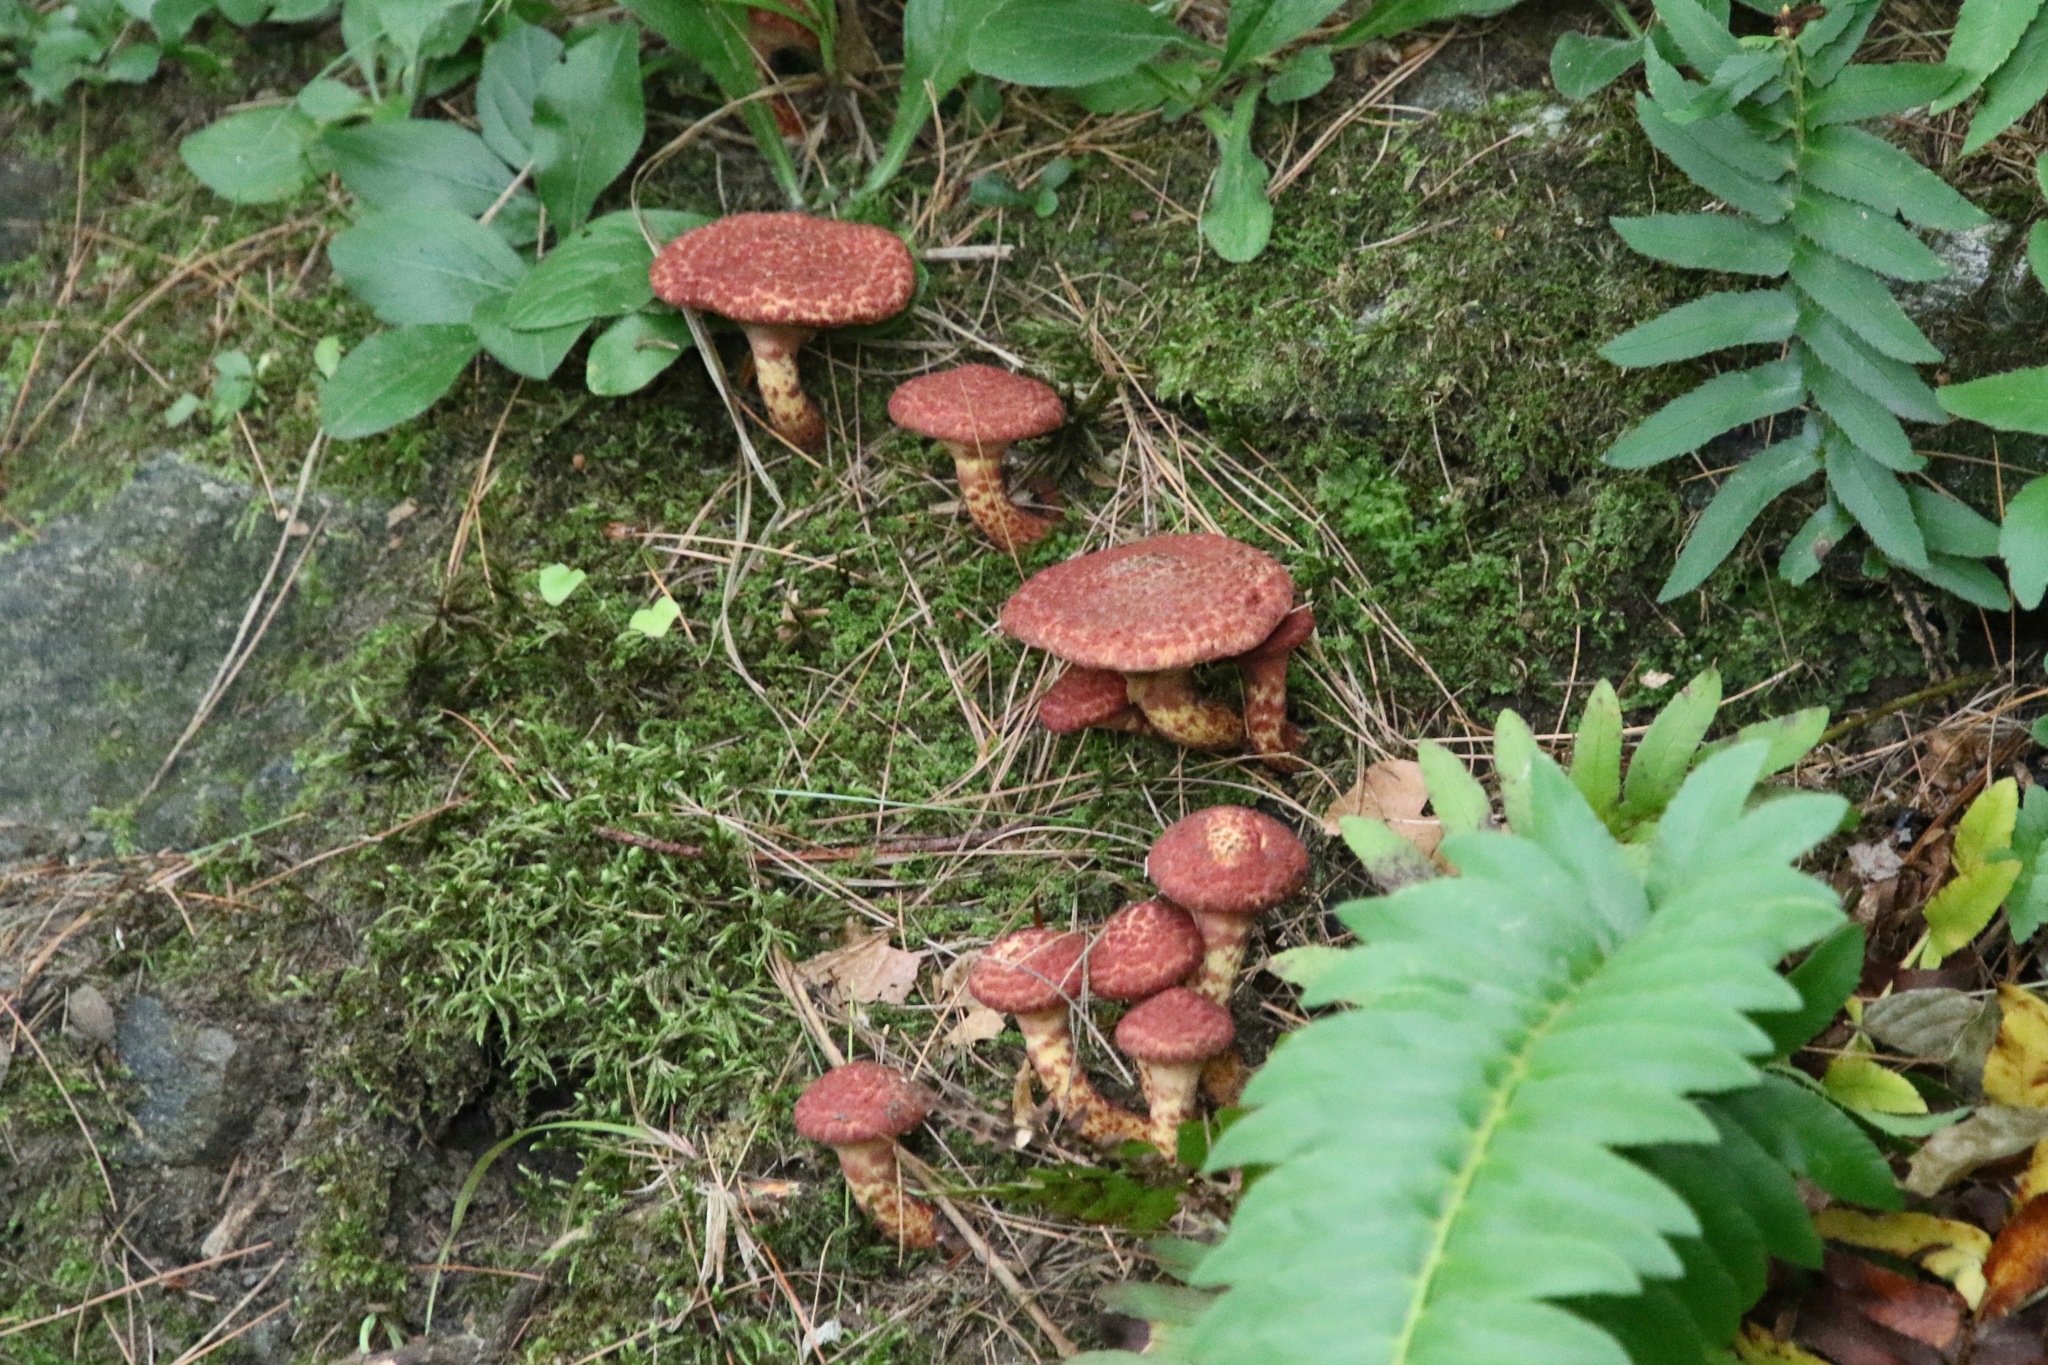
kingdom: Fungi
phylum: Basidiomycota
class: Agaricomycetes
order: Boletales
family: Suillaceae
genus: Suillus
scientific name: Suillus spraguei
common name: Painted suillus
